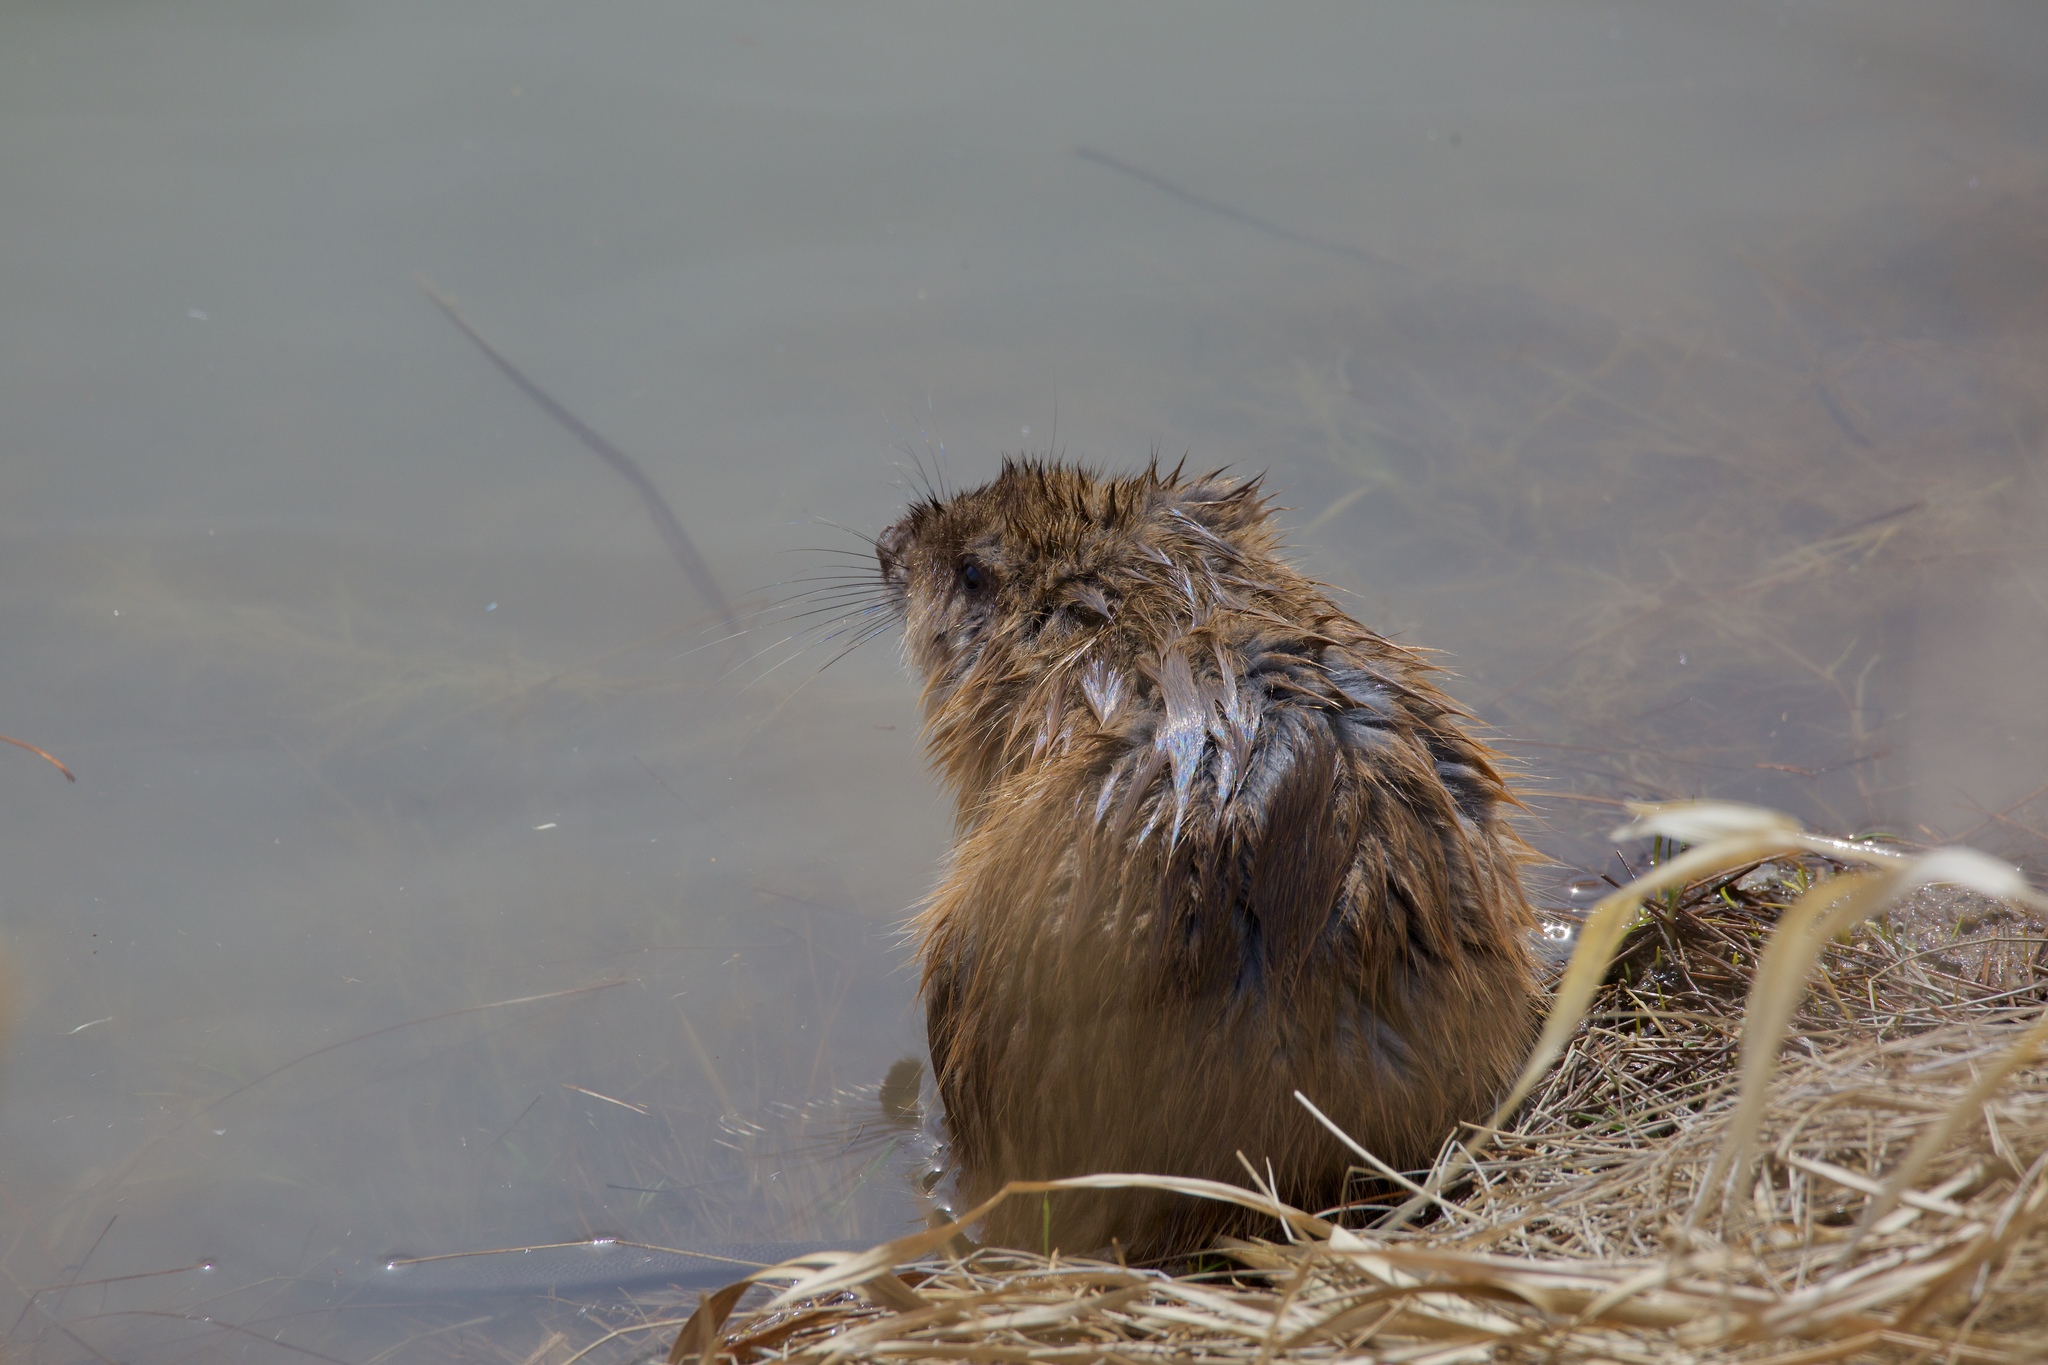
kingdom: Animalia
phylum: Chordata
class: Mammalia
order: Rodentia
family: Cricetidae
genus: Ondatra
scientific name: Ondatra zibethicus
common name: Muskrat
